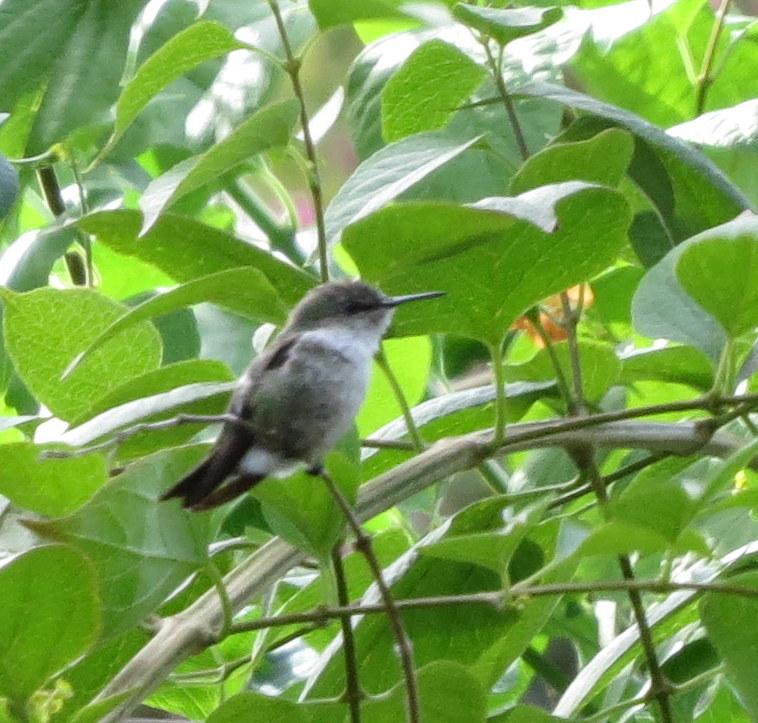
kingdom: Animalia
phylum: Chordata
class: Aves
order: Apodiformes
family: Trochilidae
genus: Mellisuga
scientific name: Mellisuga minima
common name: Vervain hummingbird
